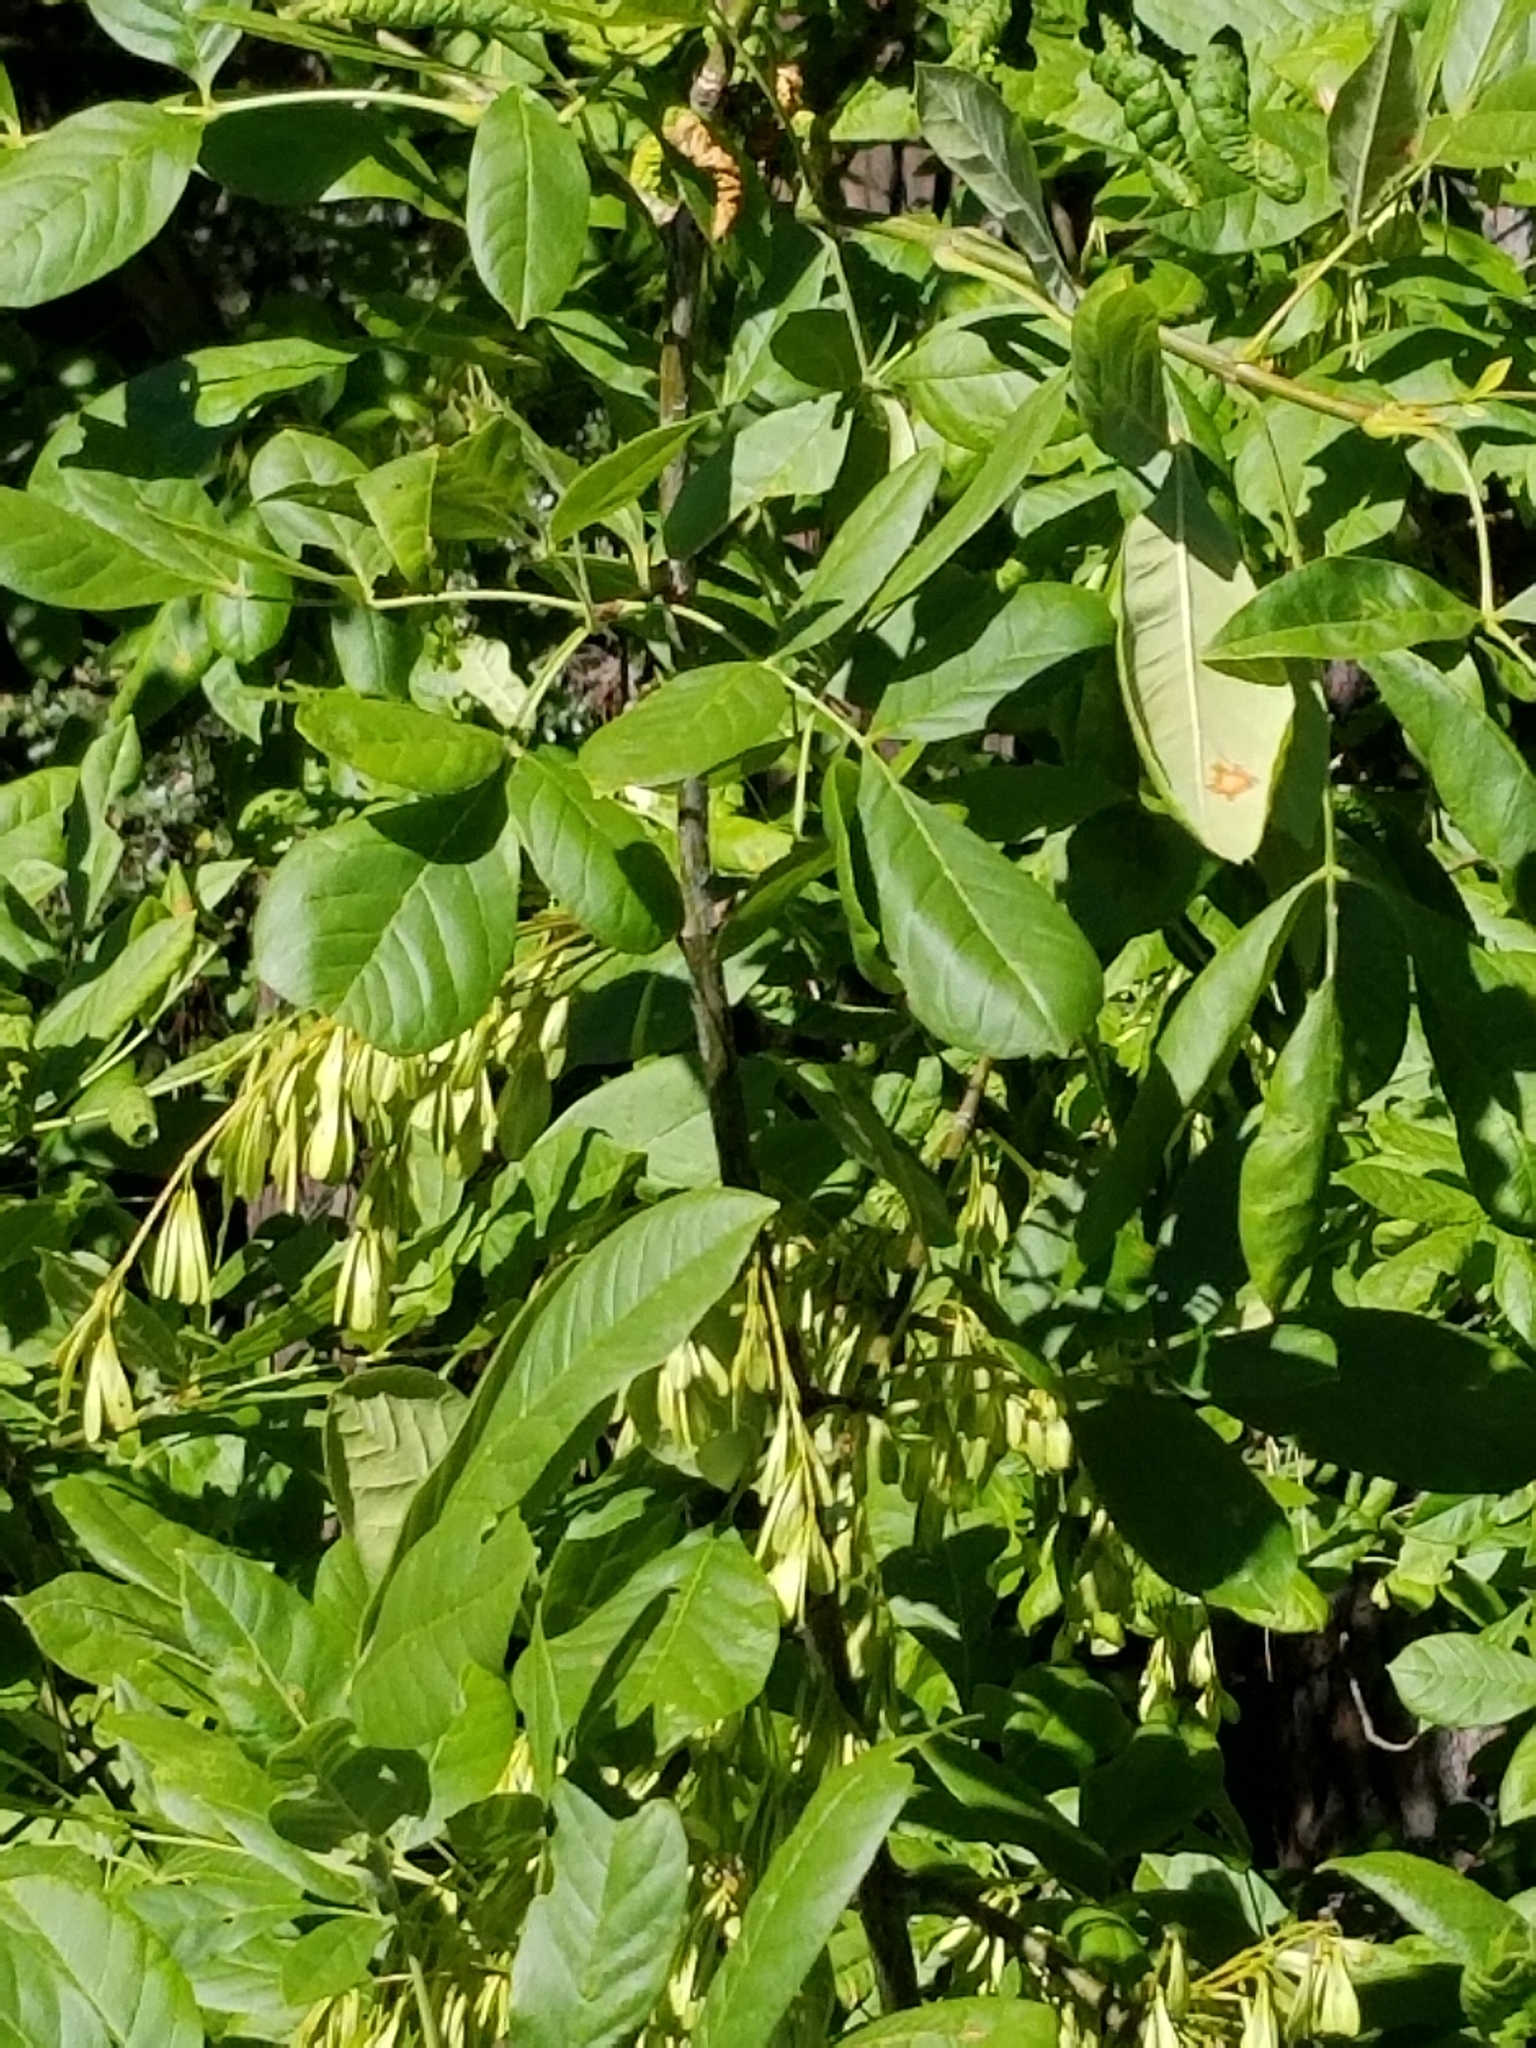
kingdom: Plantae
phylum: Tracheophyta
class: Magnoliopsida
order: Lamiales
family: Oleaceae
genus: Fraxinus
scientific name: Fraxinus latifolia
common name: Oregon ash
